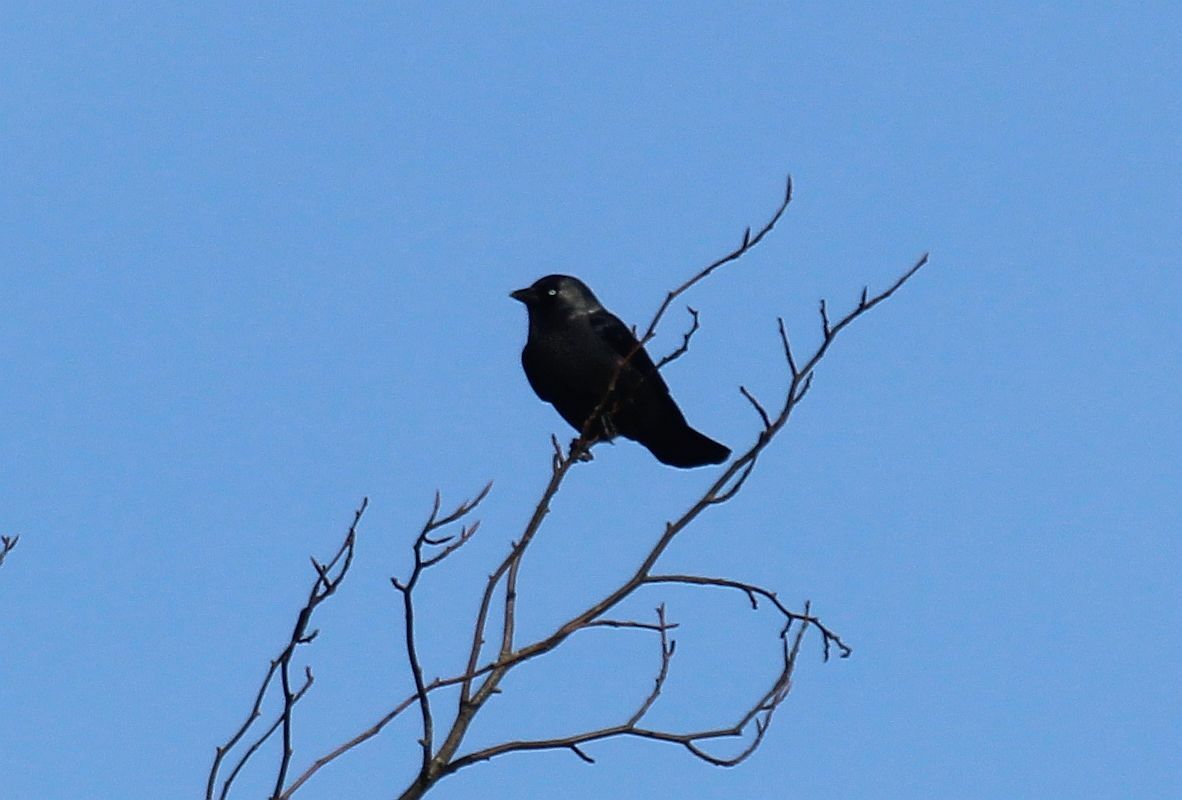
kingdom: Animalia
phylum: Chordata
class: Aves
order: Passeriformes
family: Corvidae
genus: Coloeus
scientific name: Coloeus monedula
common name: Western jackdaw
